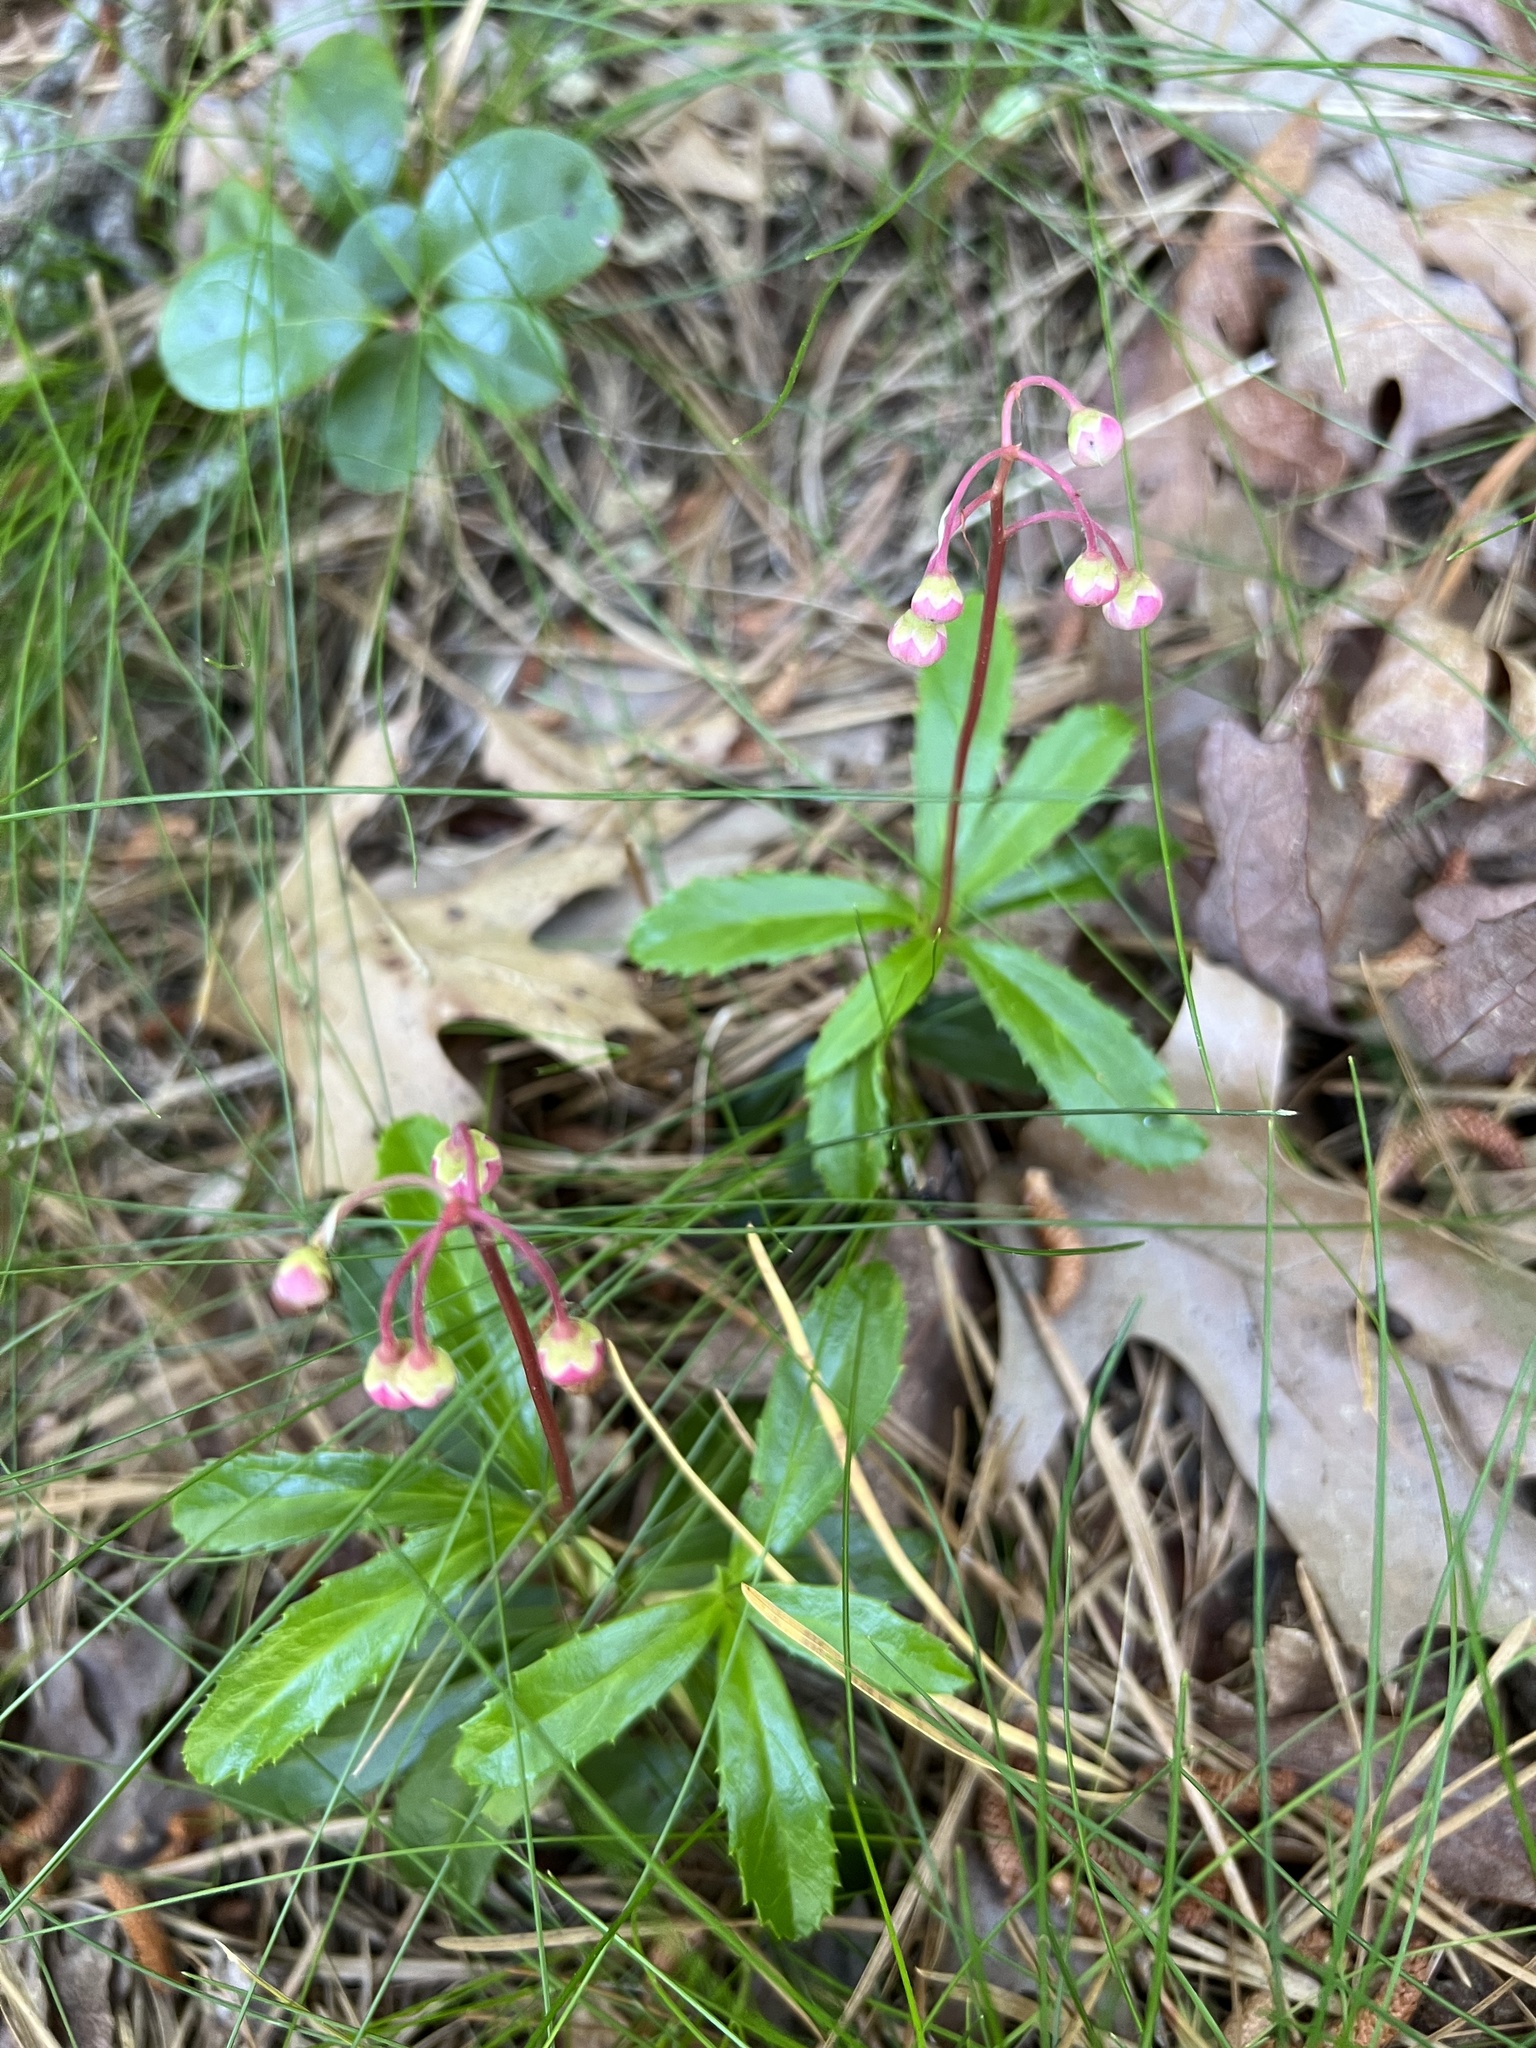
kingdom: Plantae
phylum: Tracheophyta
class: Magnoliopsida
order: Ericales
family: Ericaceae
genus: Chimaphila
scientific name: Chimaphila umbellata
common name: Pipsissewa
